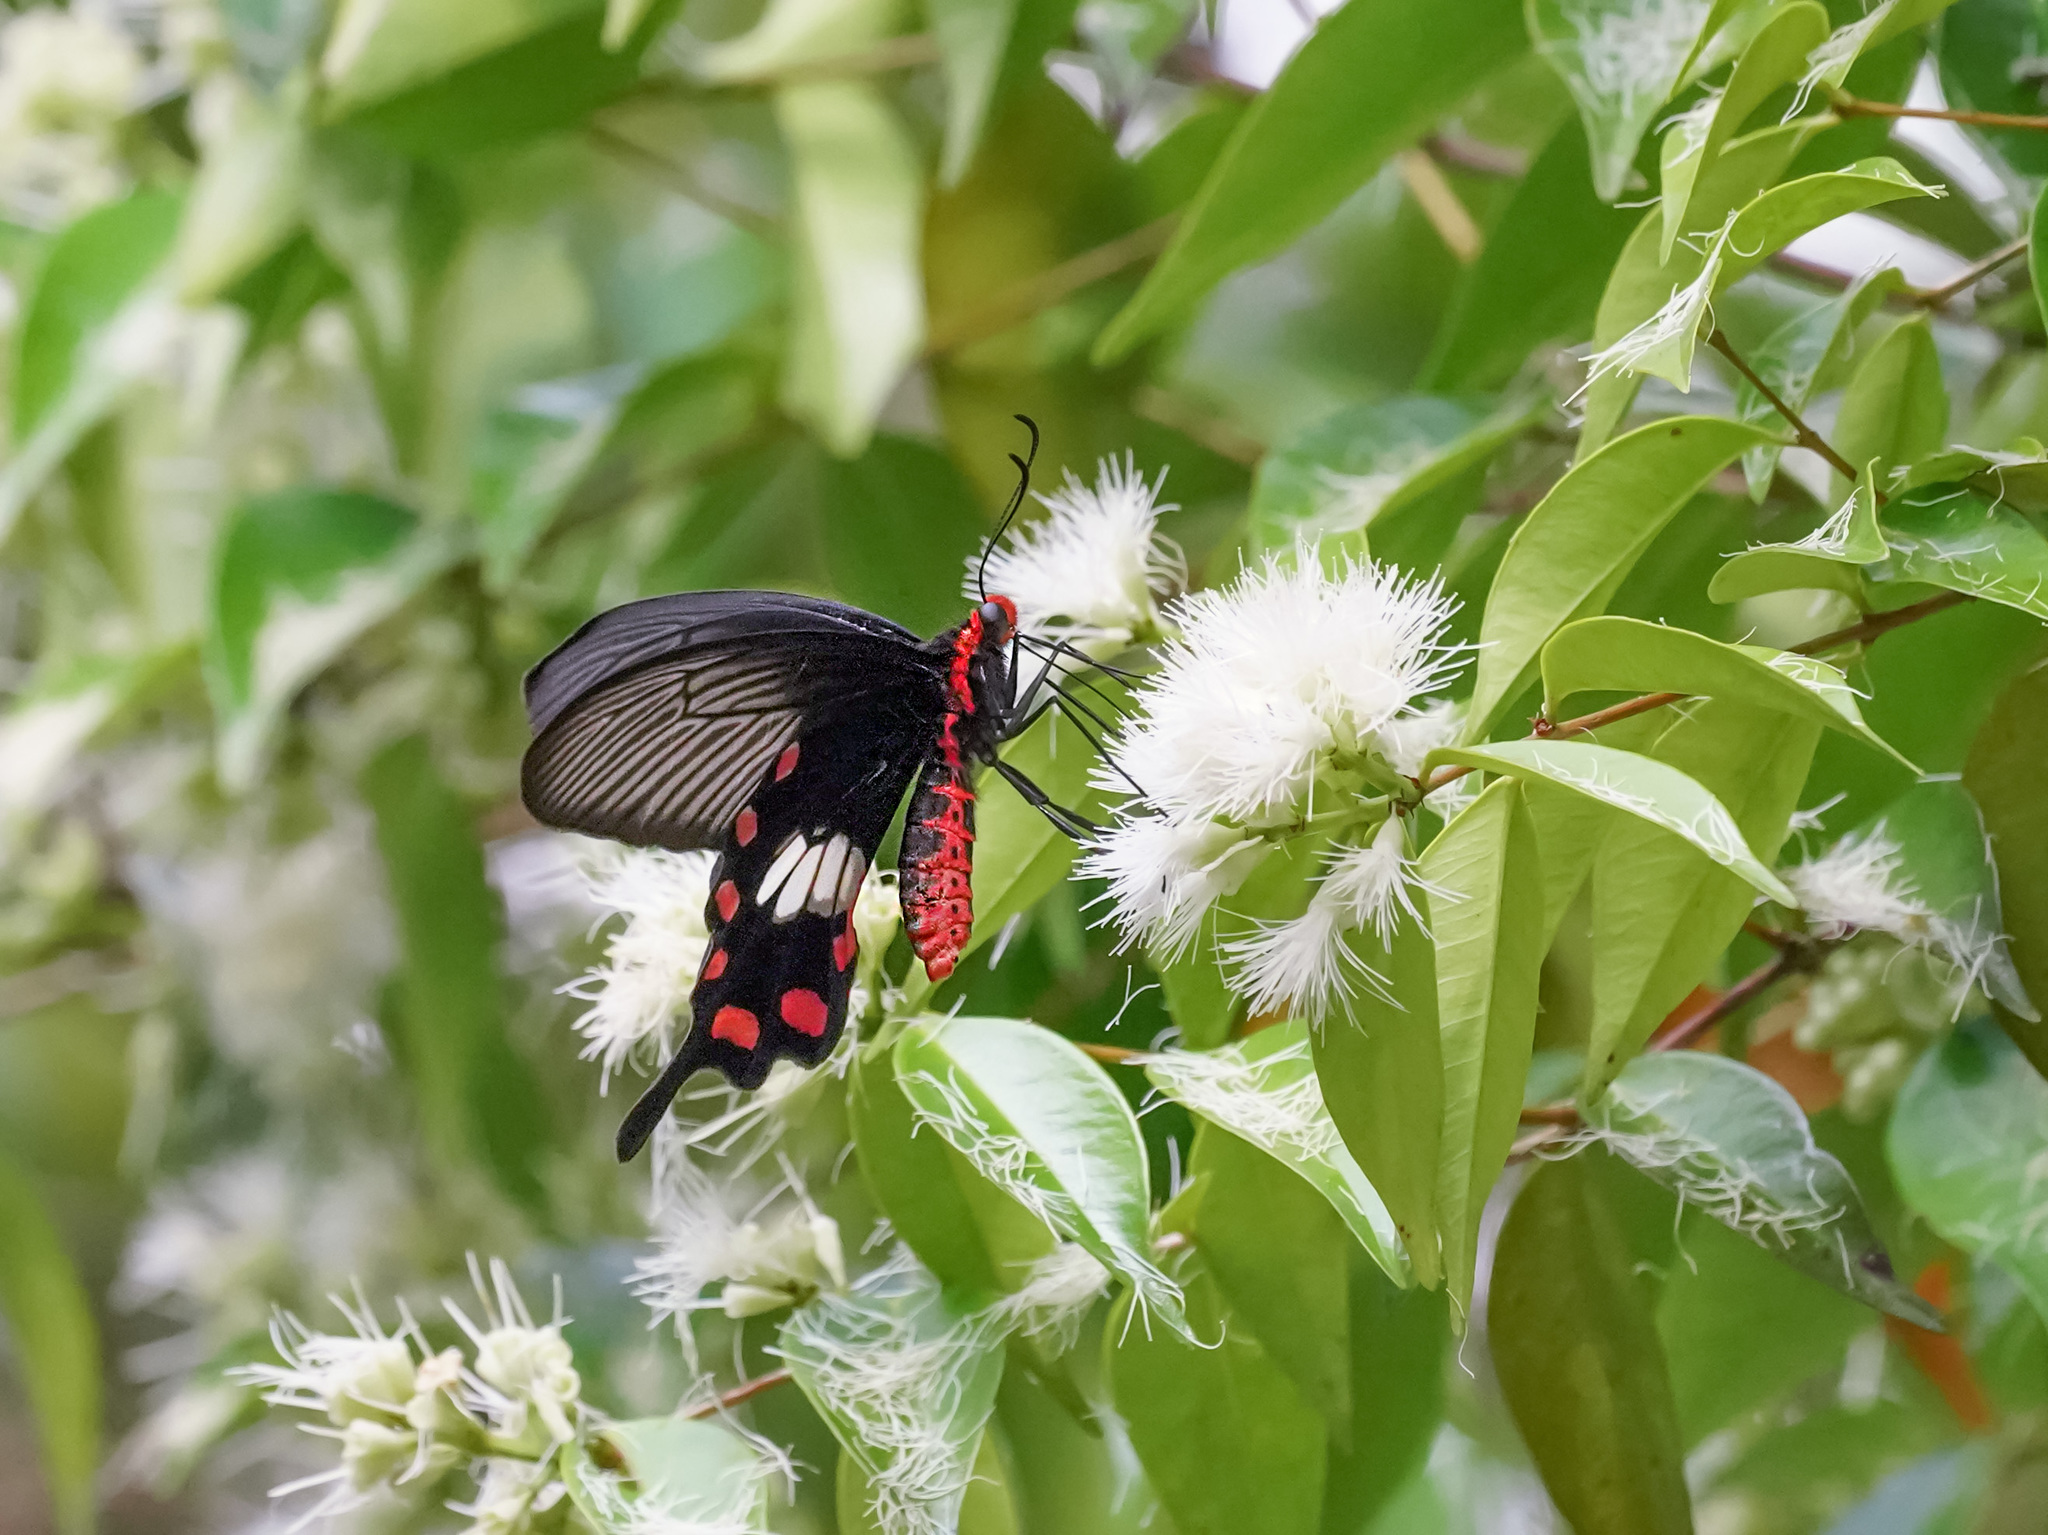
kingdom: Animalia
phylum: Arthropoda
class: Insecta
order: Lepidoptera
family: Papilionidae
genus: Pachliopta
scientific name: Pachliopta aristolochiae
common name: Common rose
